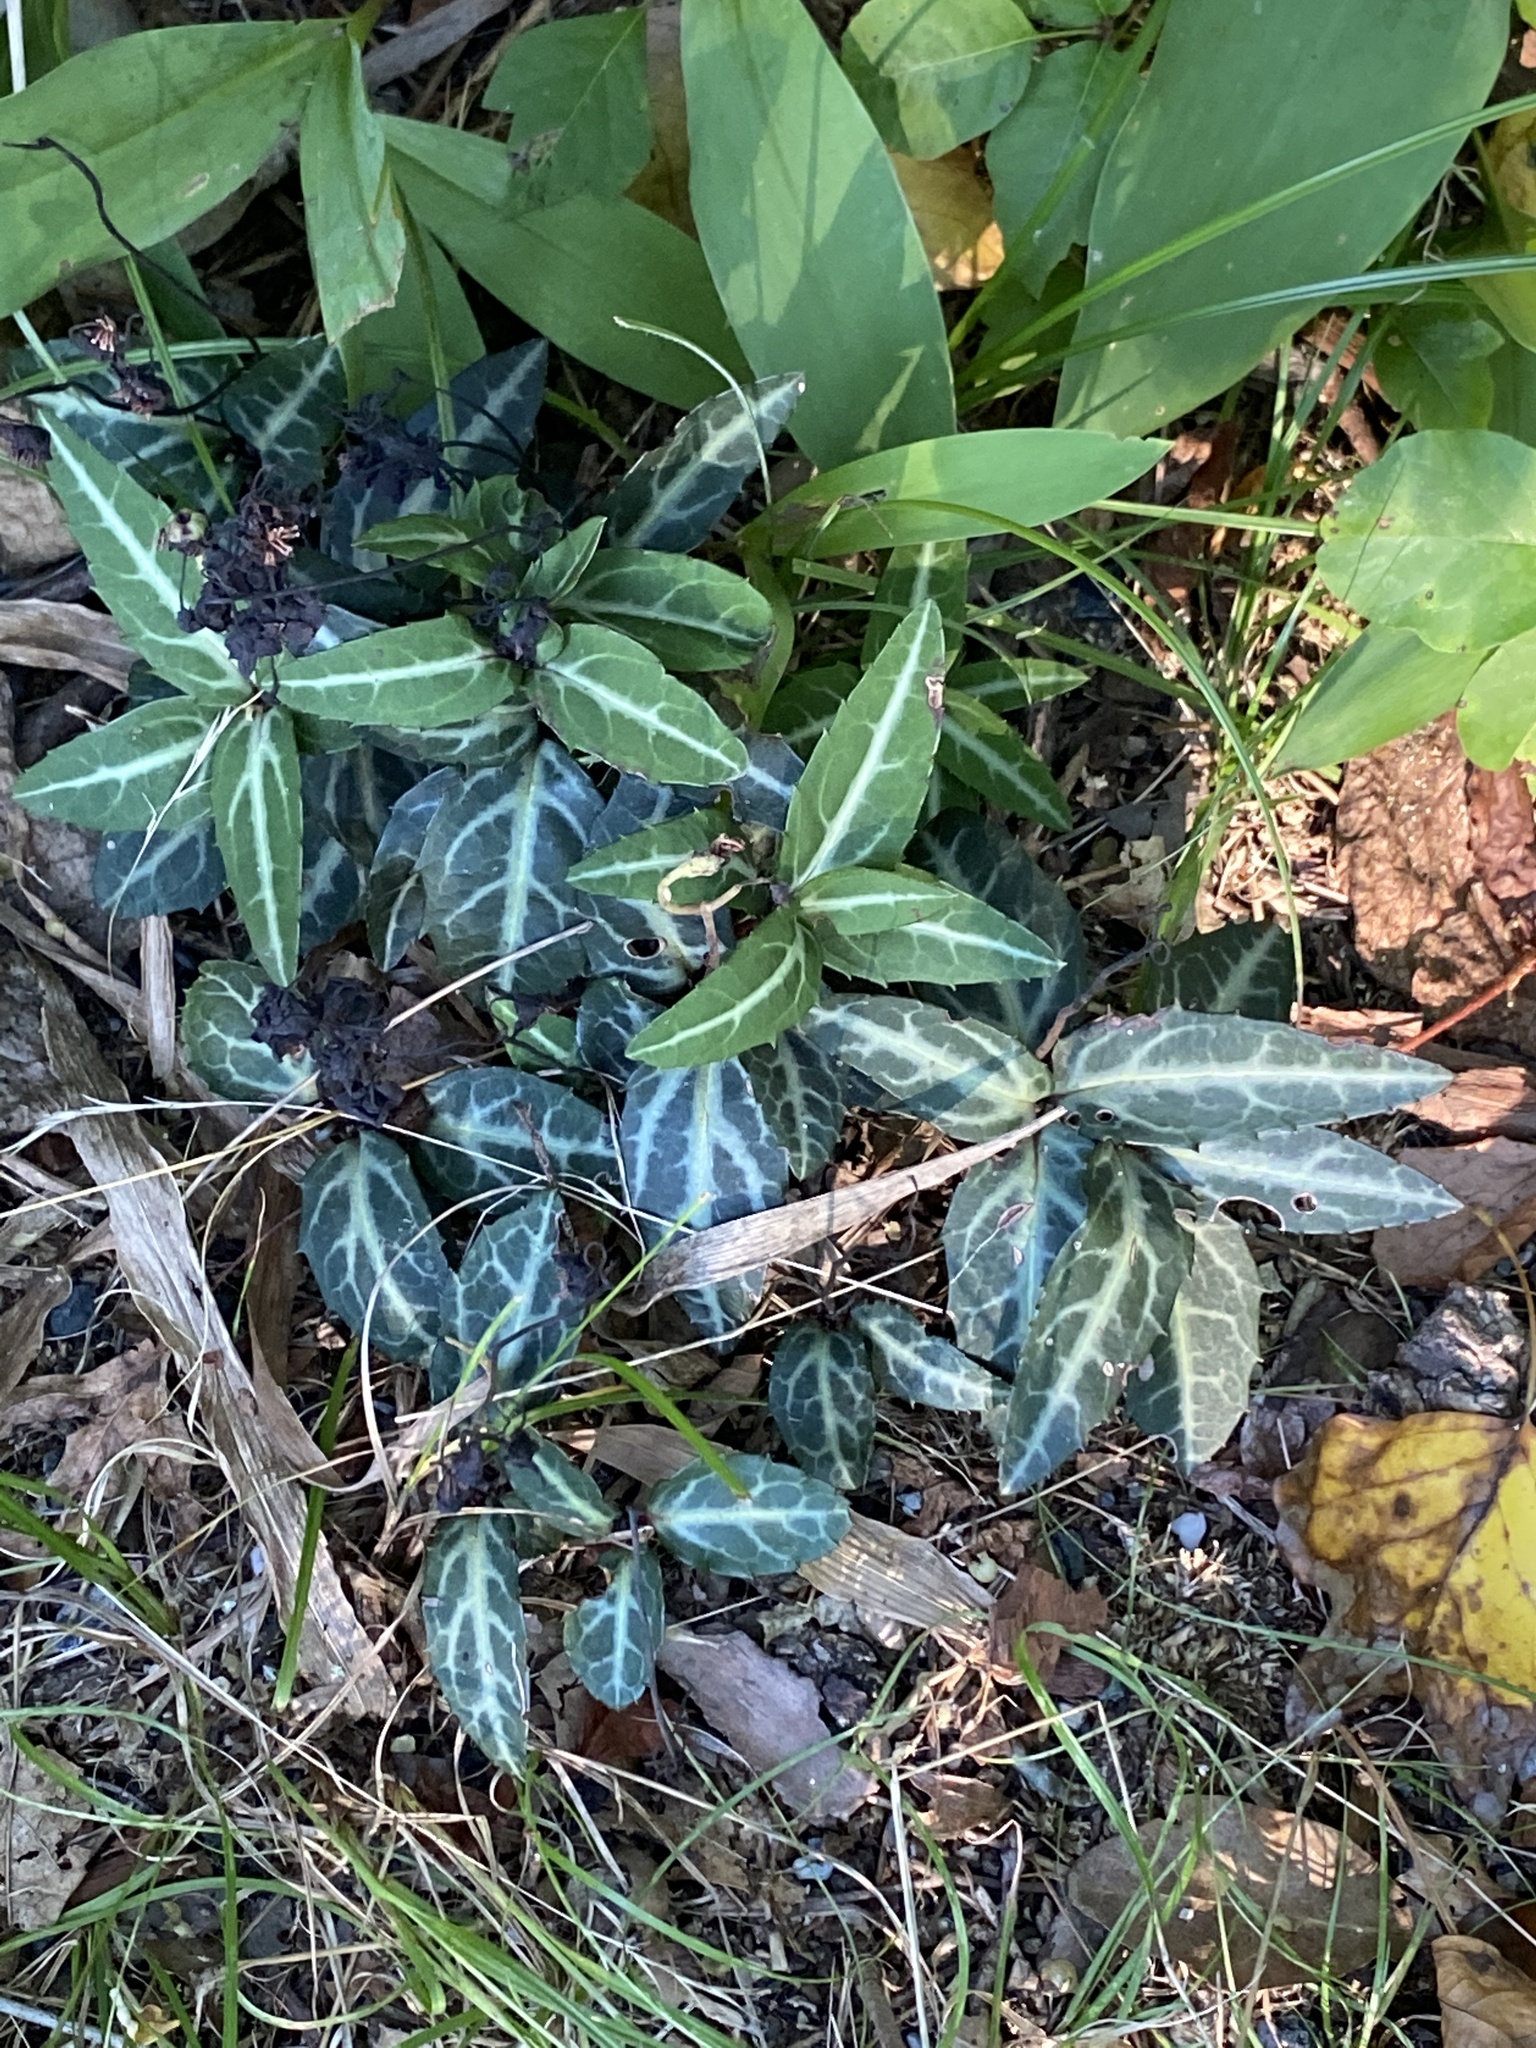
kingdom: Plantae
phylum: Tracheophyta
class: Magnoliopsida
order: Ericales
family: Ericaceae
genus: Chimaphila
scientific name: Chimaphila maculata
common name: Spotted pipsissewa
